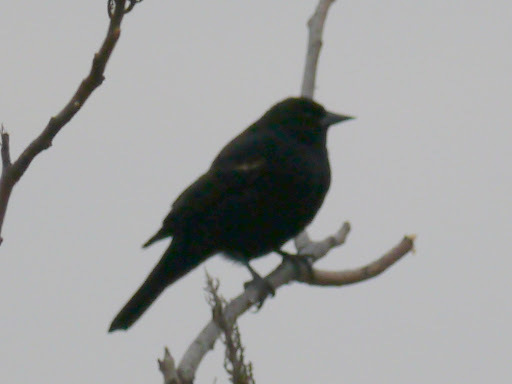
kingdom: Animalia
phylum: Chordata
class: Aves
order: Passeriformes
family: Icteridae
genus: Agelaius
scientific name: Agelaius phoeniceus
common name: Red-winged blackbird
